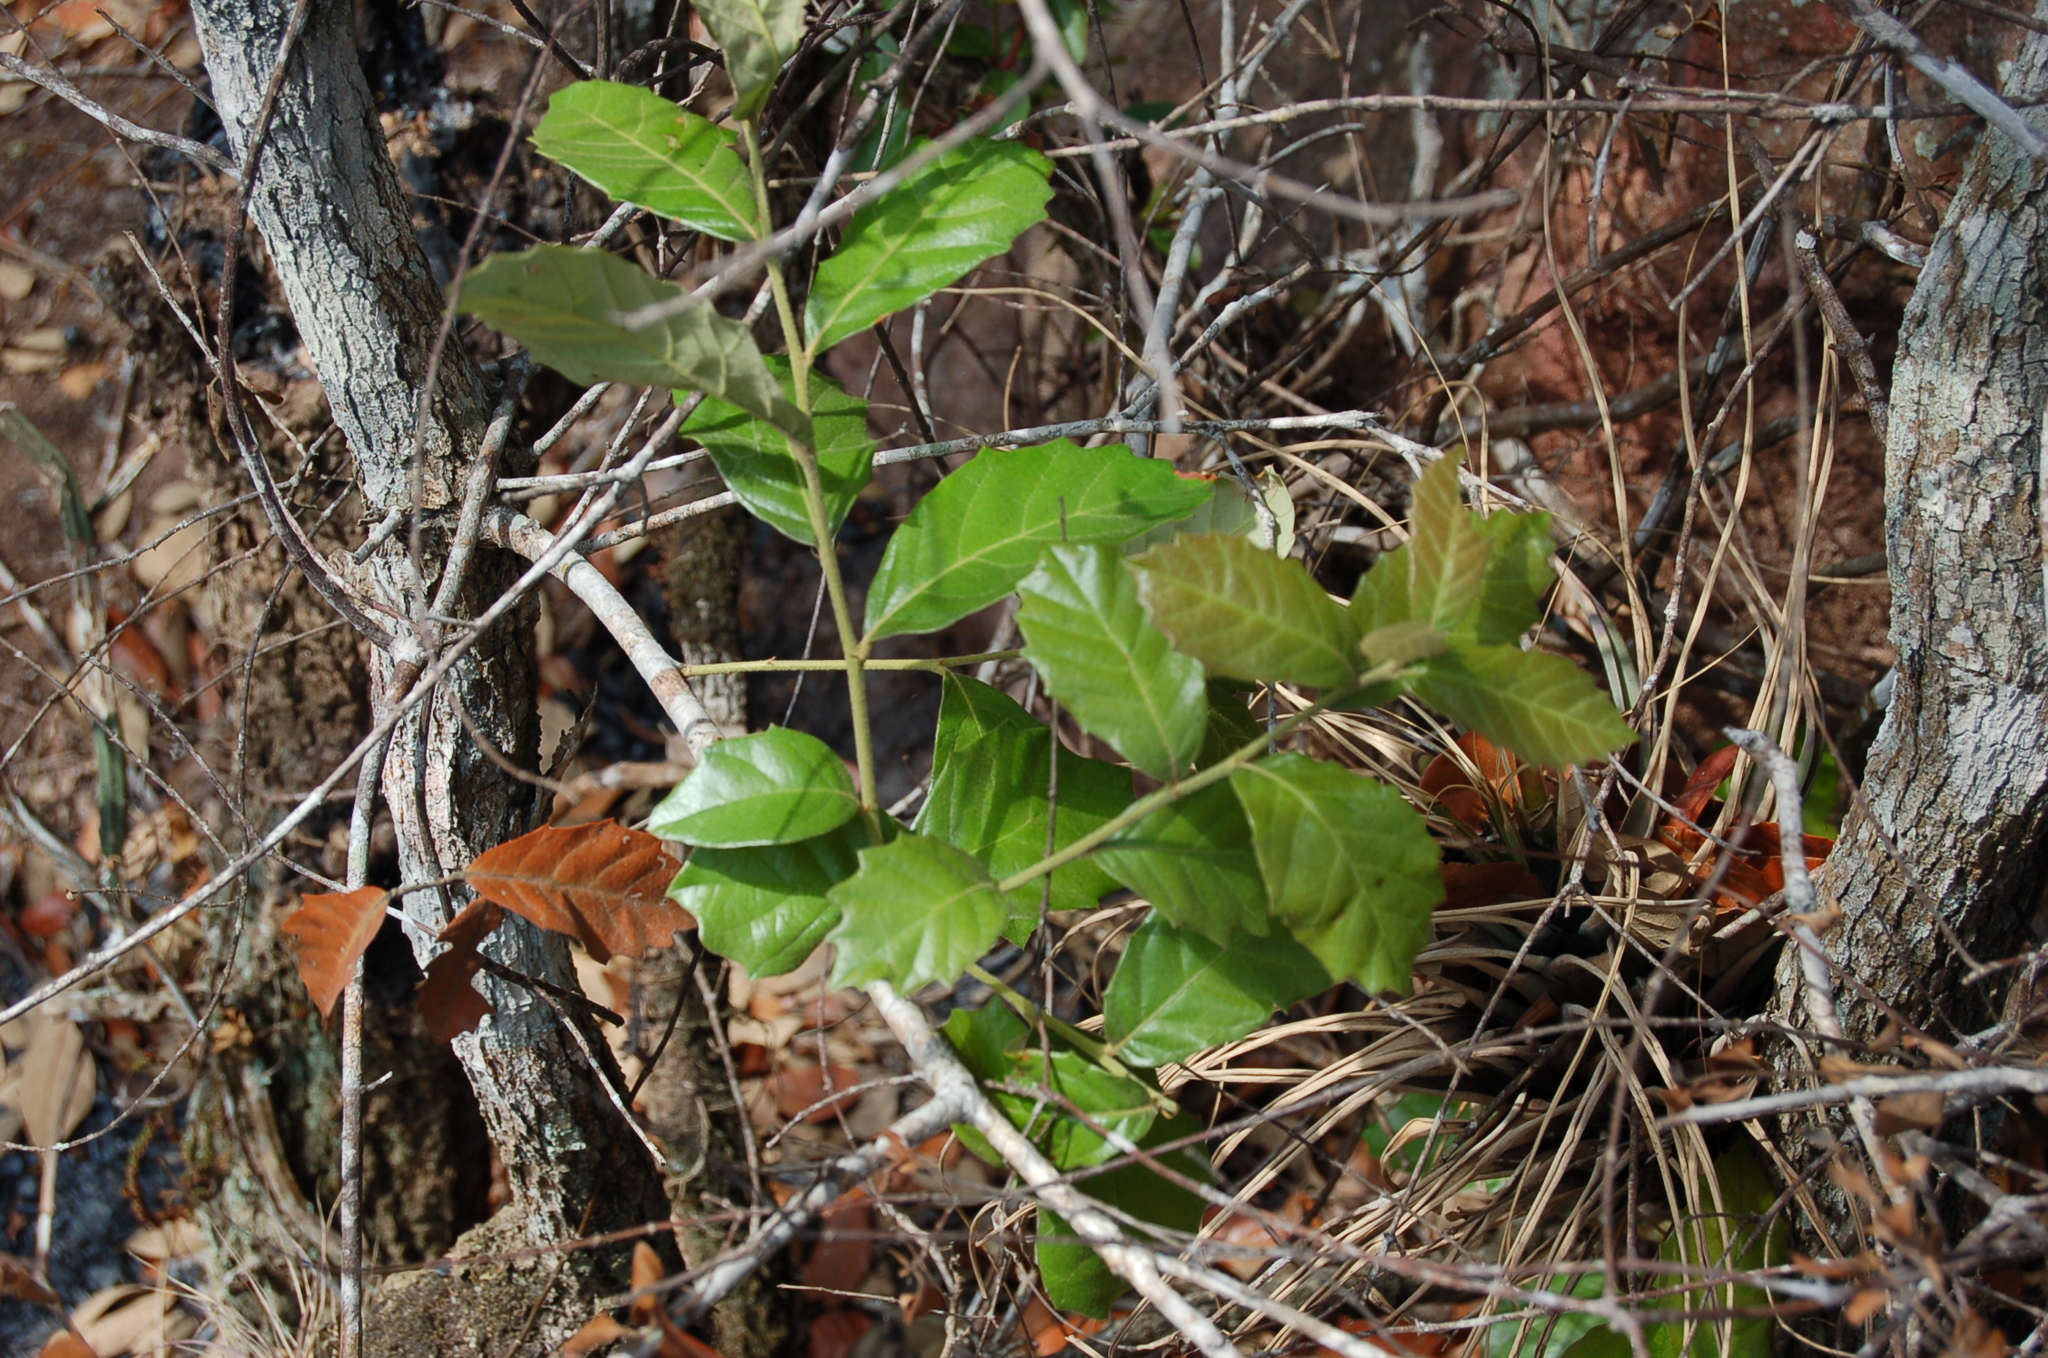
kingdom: Plantae
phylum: Tracheophyta
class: Magnoliopsida
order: Fagales
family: Fagaceae
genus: Quercus
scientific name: Quercus oleoides
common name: White oak
